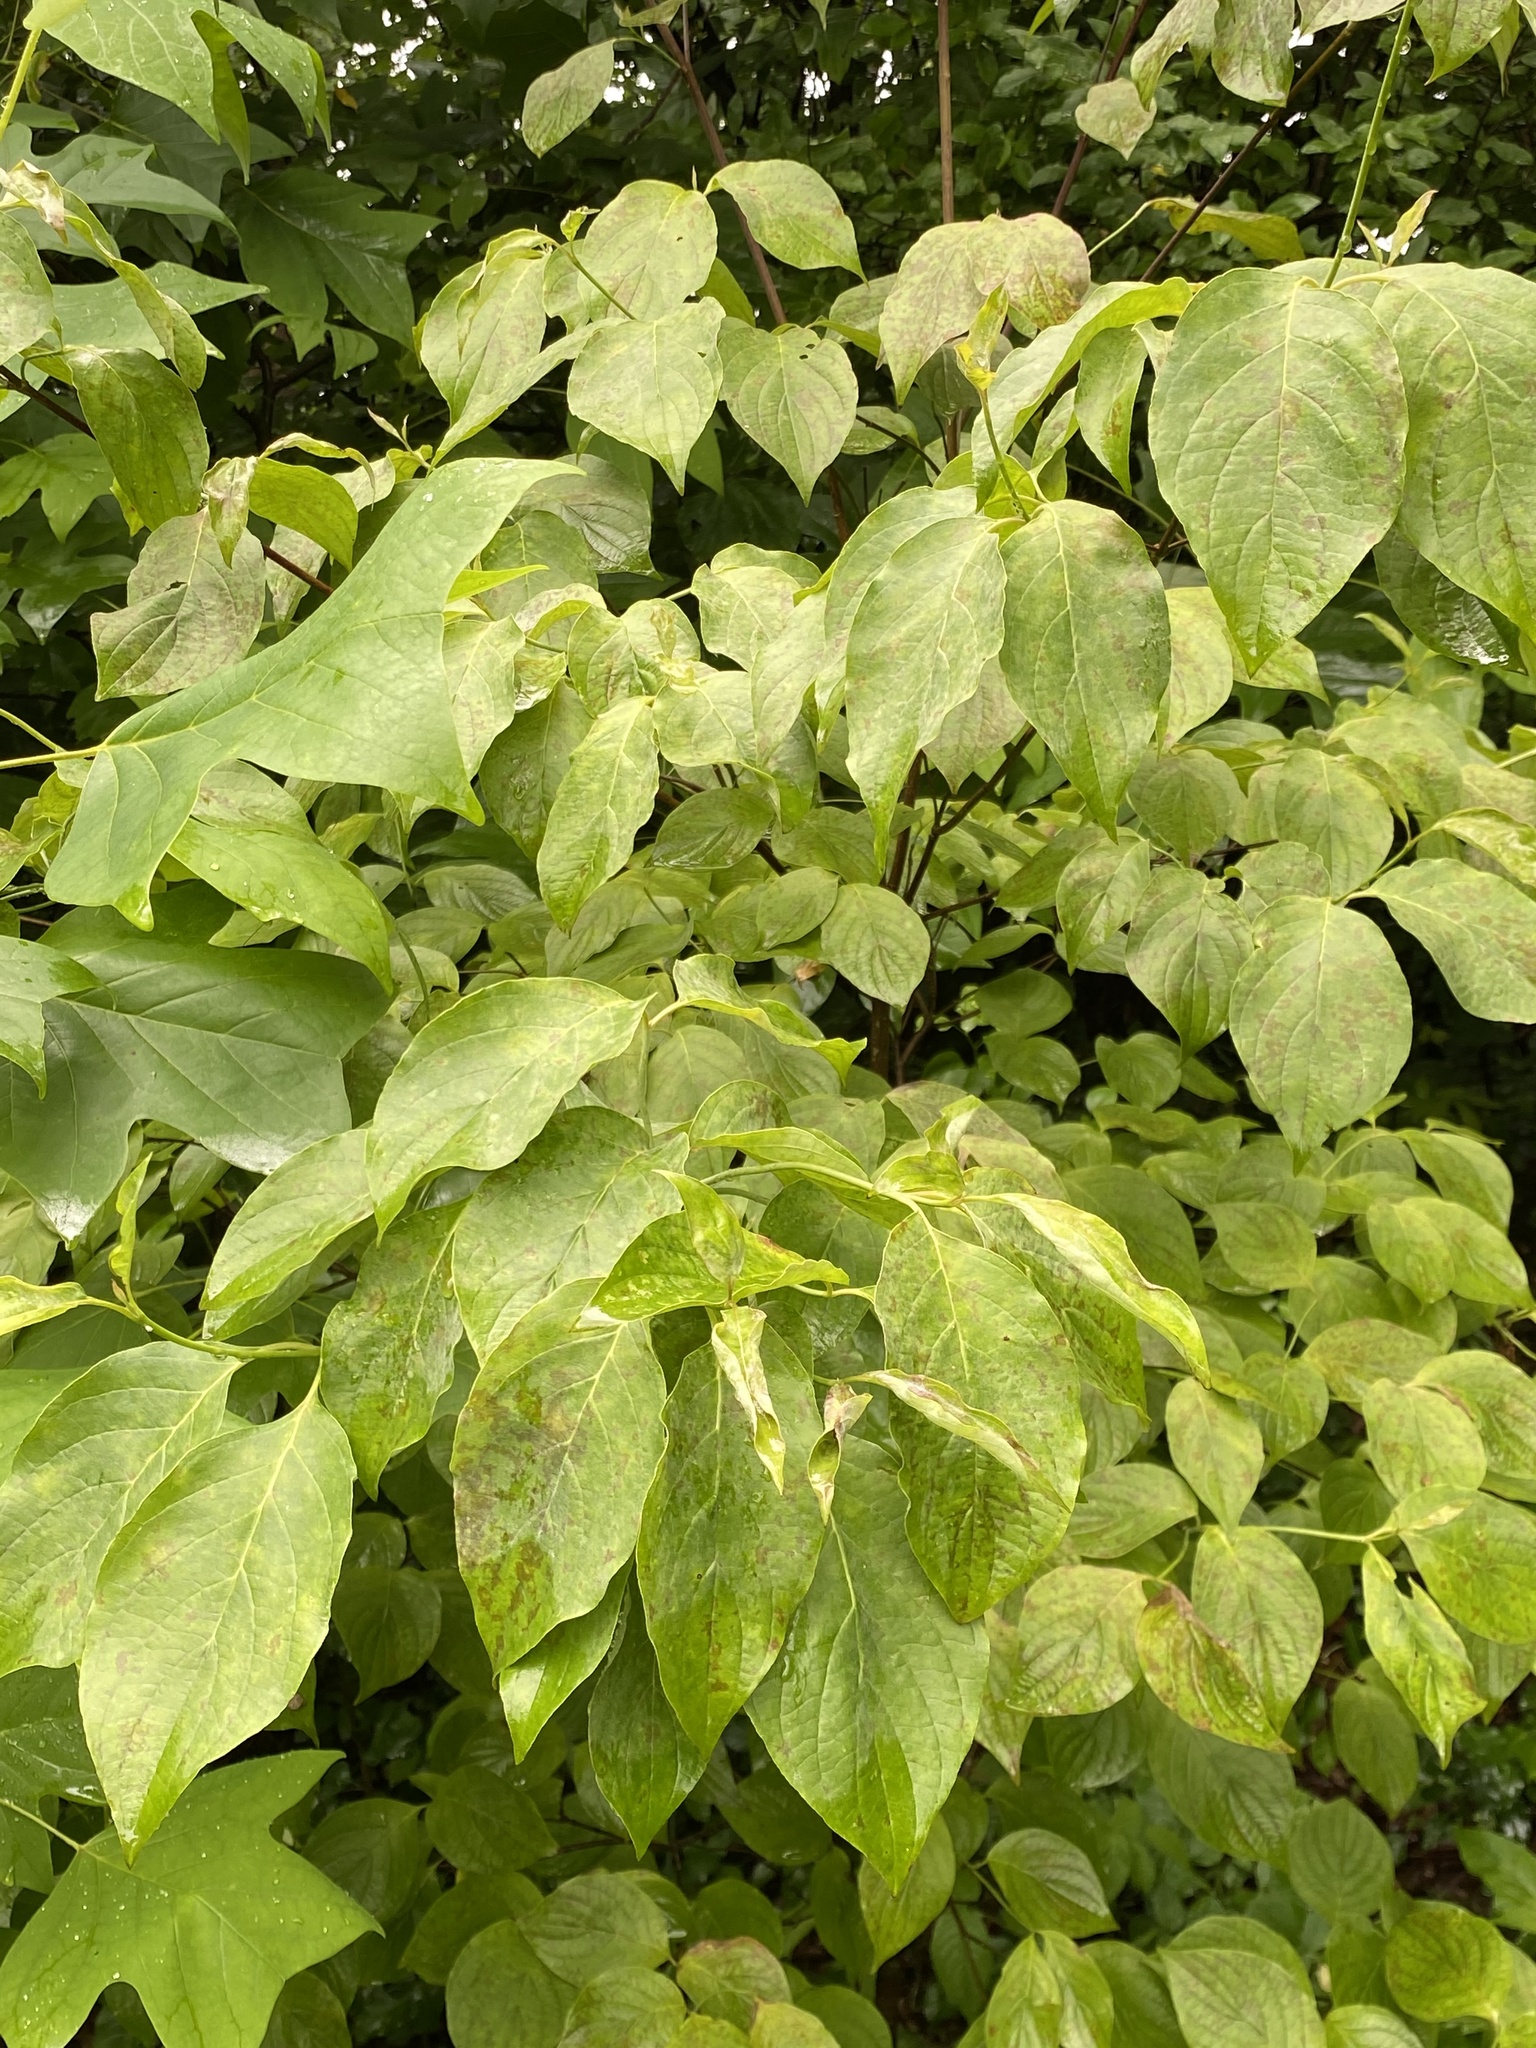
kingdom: Plantae
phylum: Tracheophyta
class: Magnoliopsida
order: Cornales
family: Cornaceae
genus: Cornus
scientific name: Cornus florida
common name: Flowering dogwood
